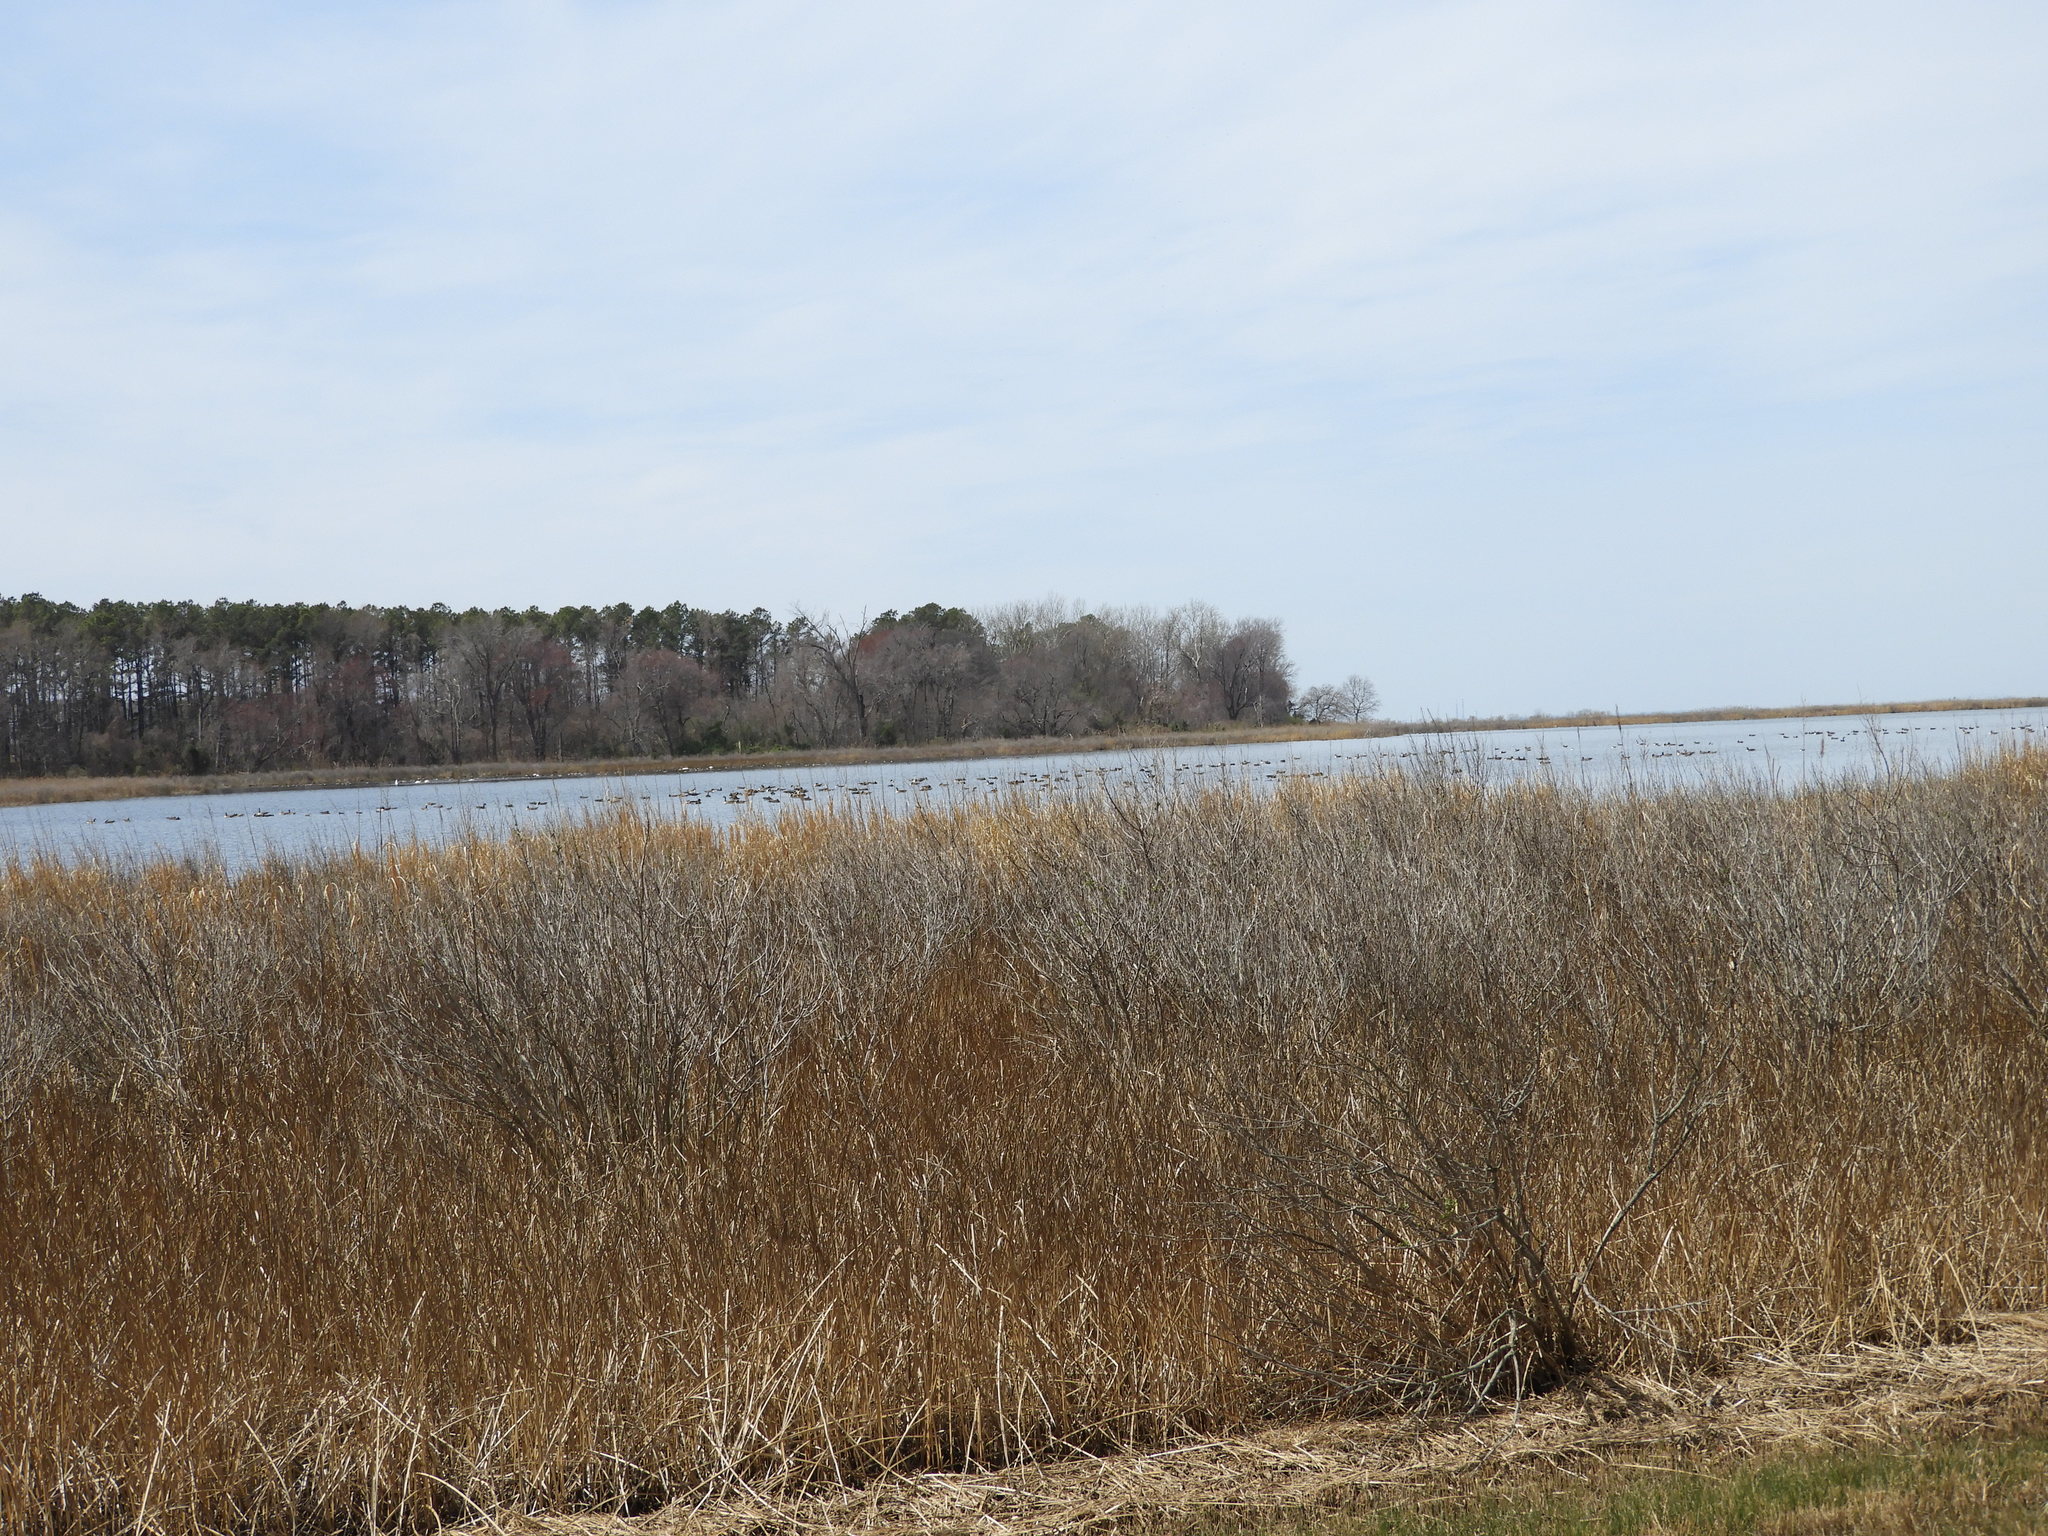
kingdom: Animalia
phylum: Chordata
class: Aves
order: Anseriformes
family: Anatidae
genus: Branta
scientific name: Branta canadensis
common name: Canada goose
